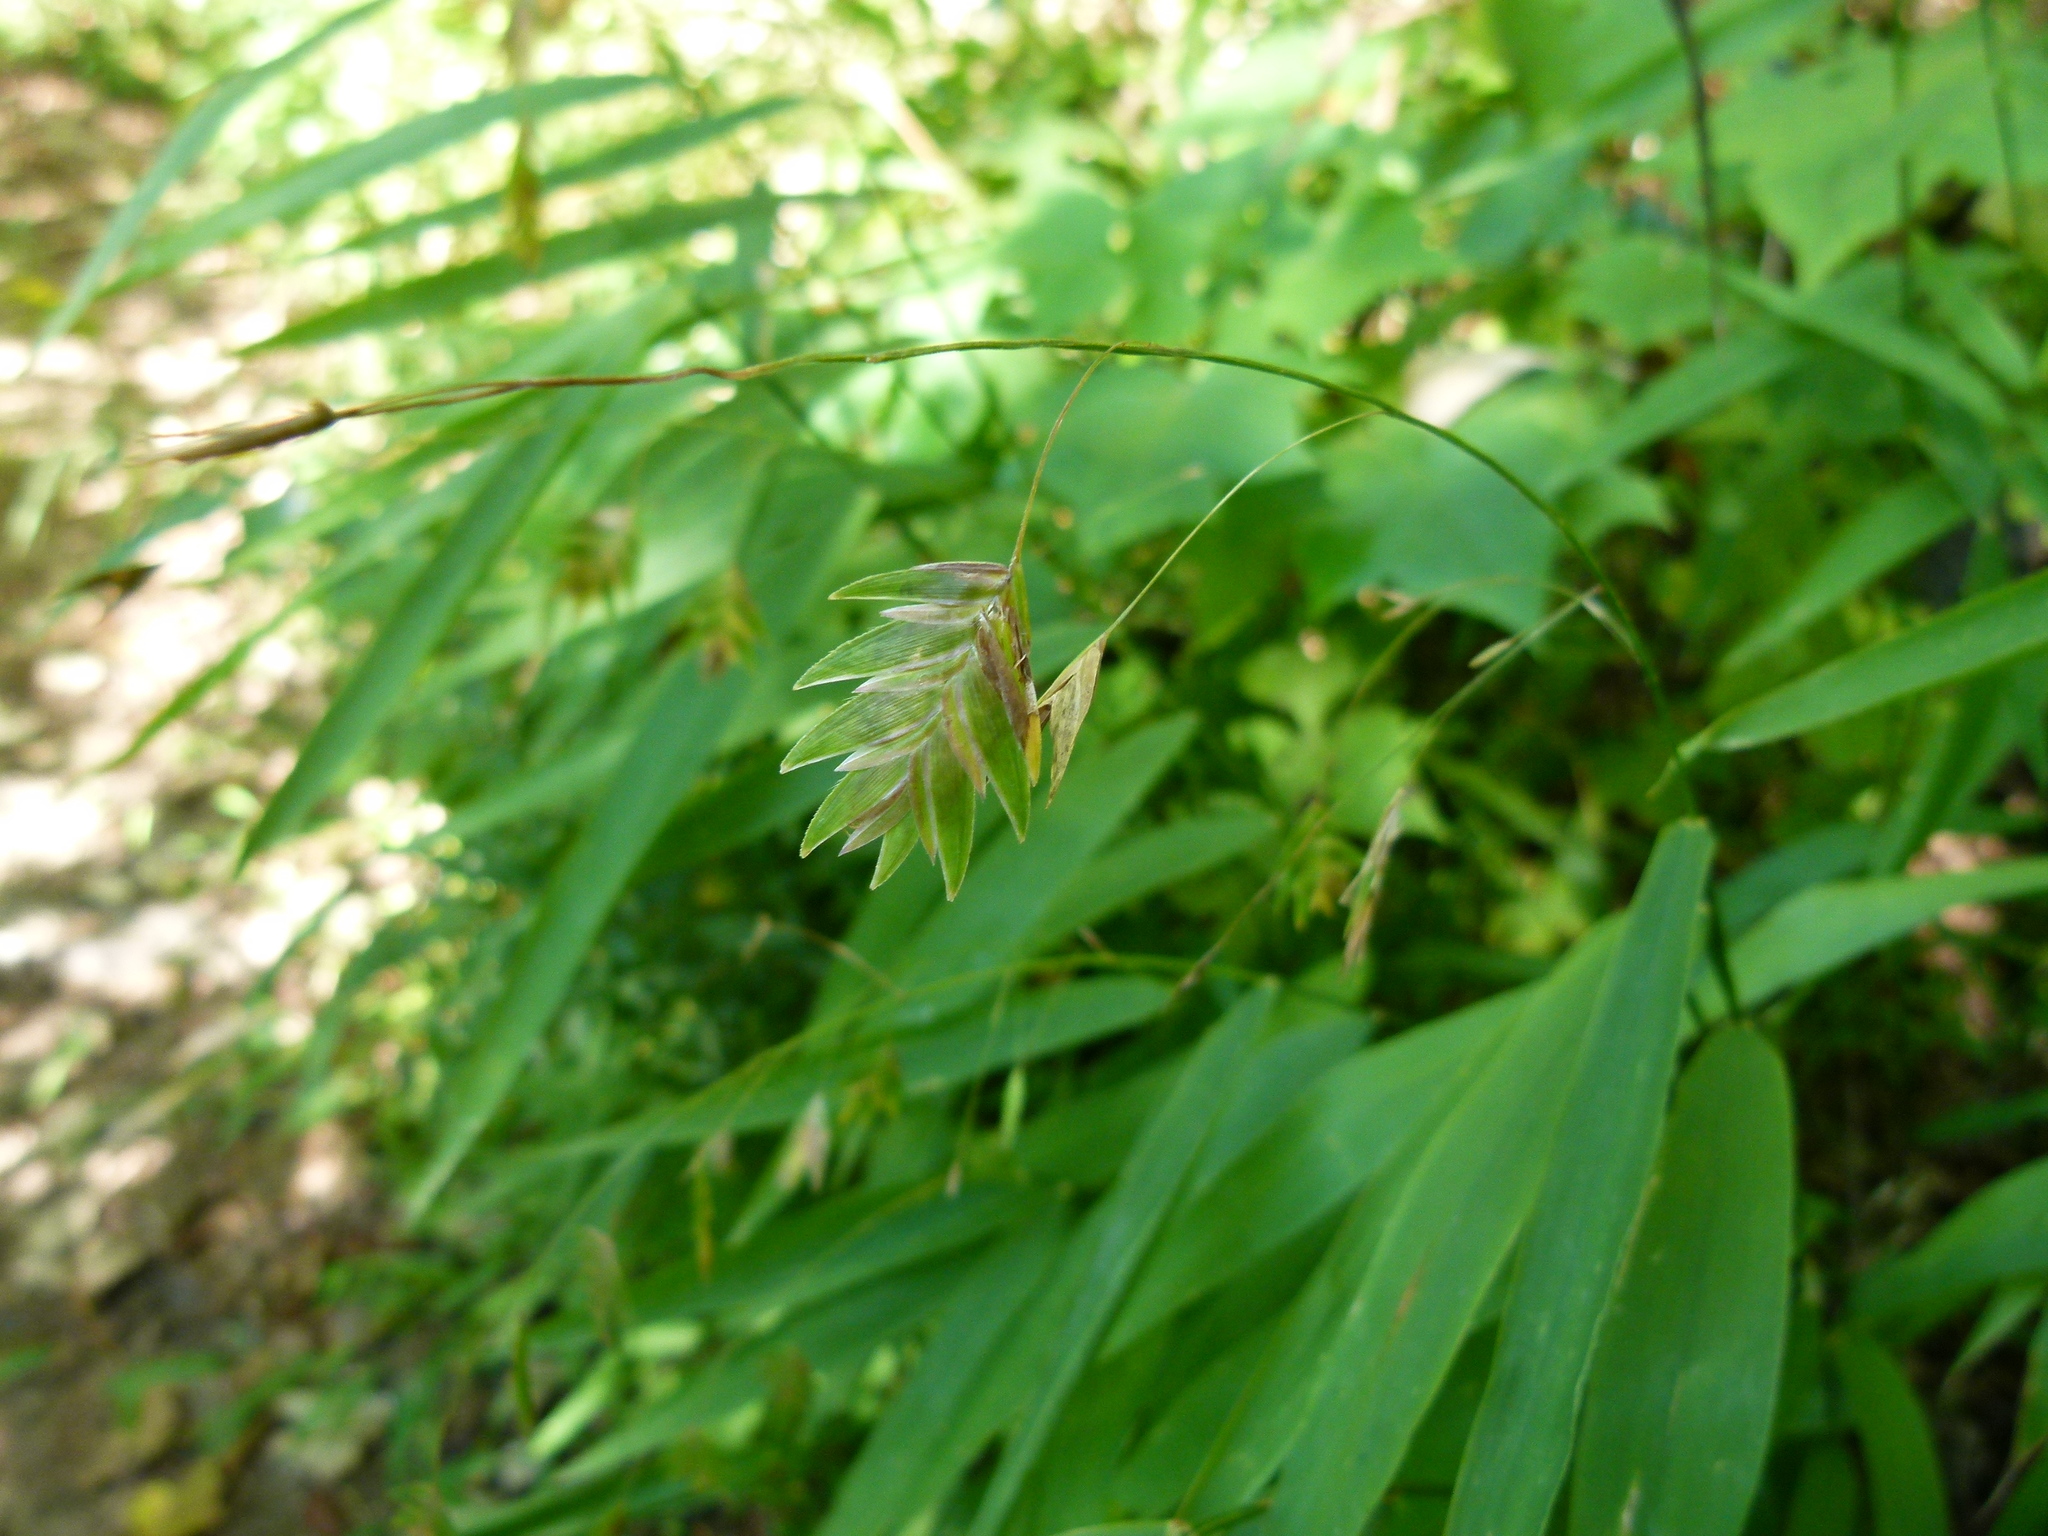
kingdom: Plantae
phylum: Tracheophyta
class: Liliopsida
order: Poales
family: Poaceae
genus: Chasmanthium
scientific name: Chasmanthium latifolium
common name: Broad-leaved chasmanthium
